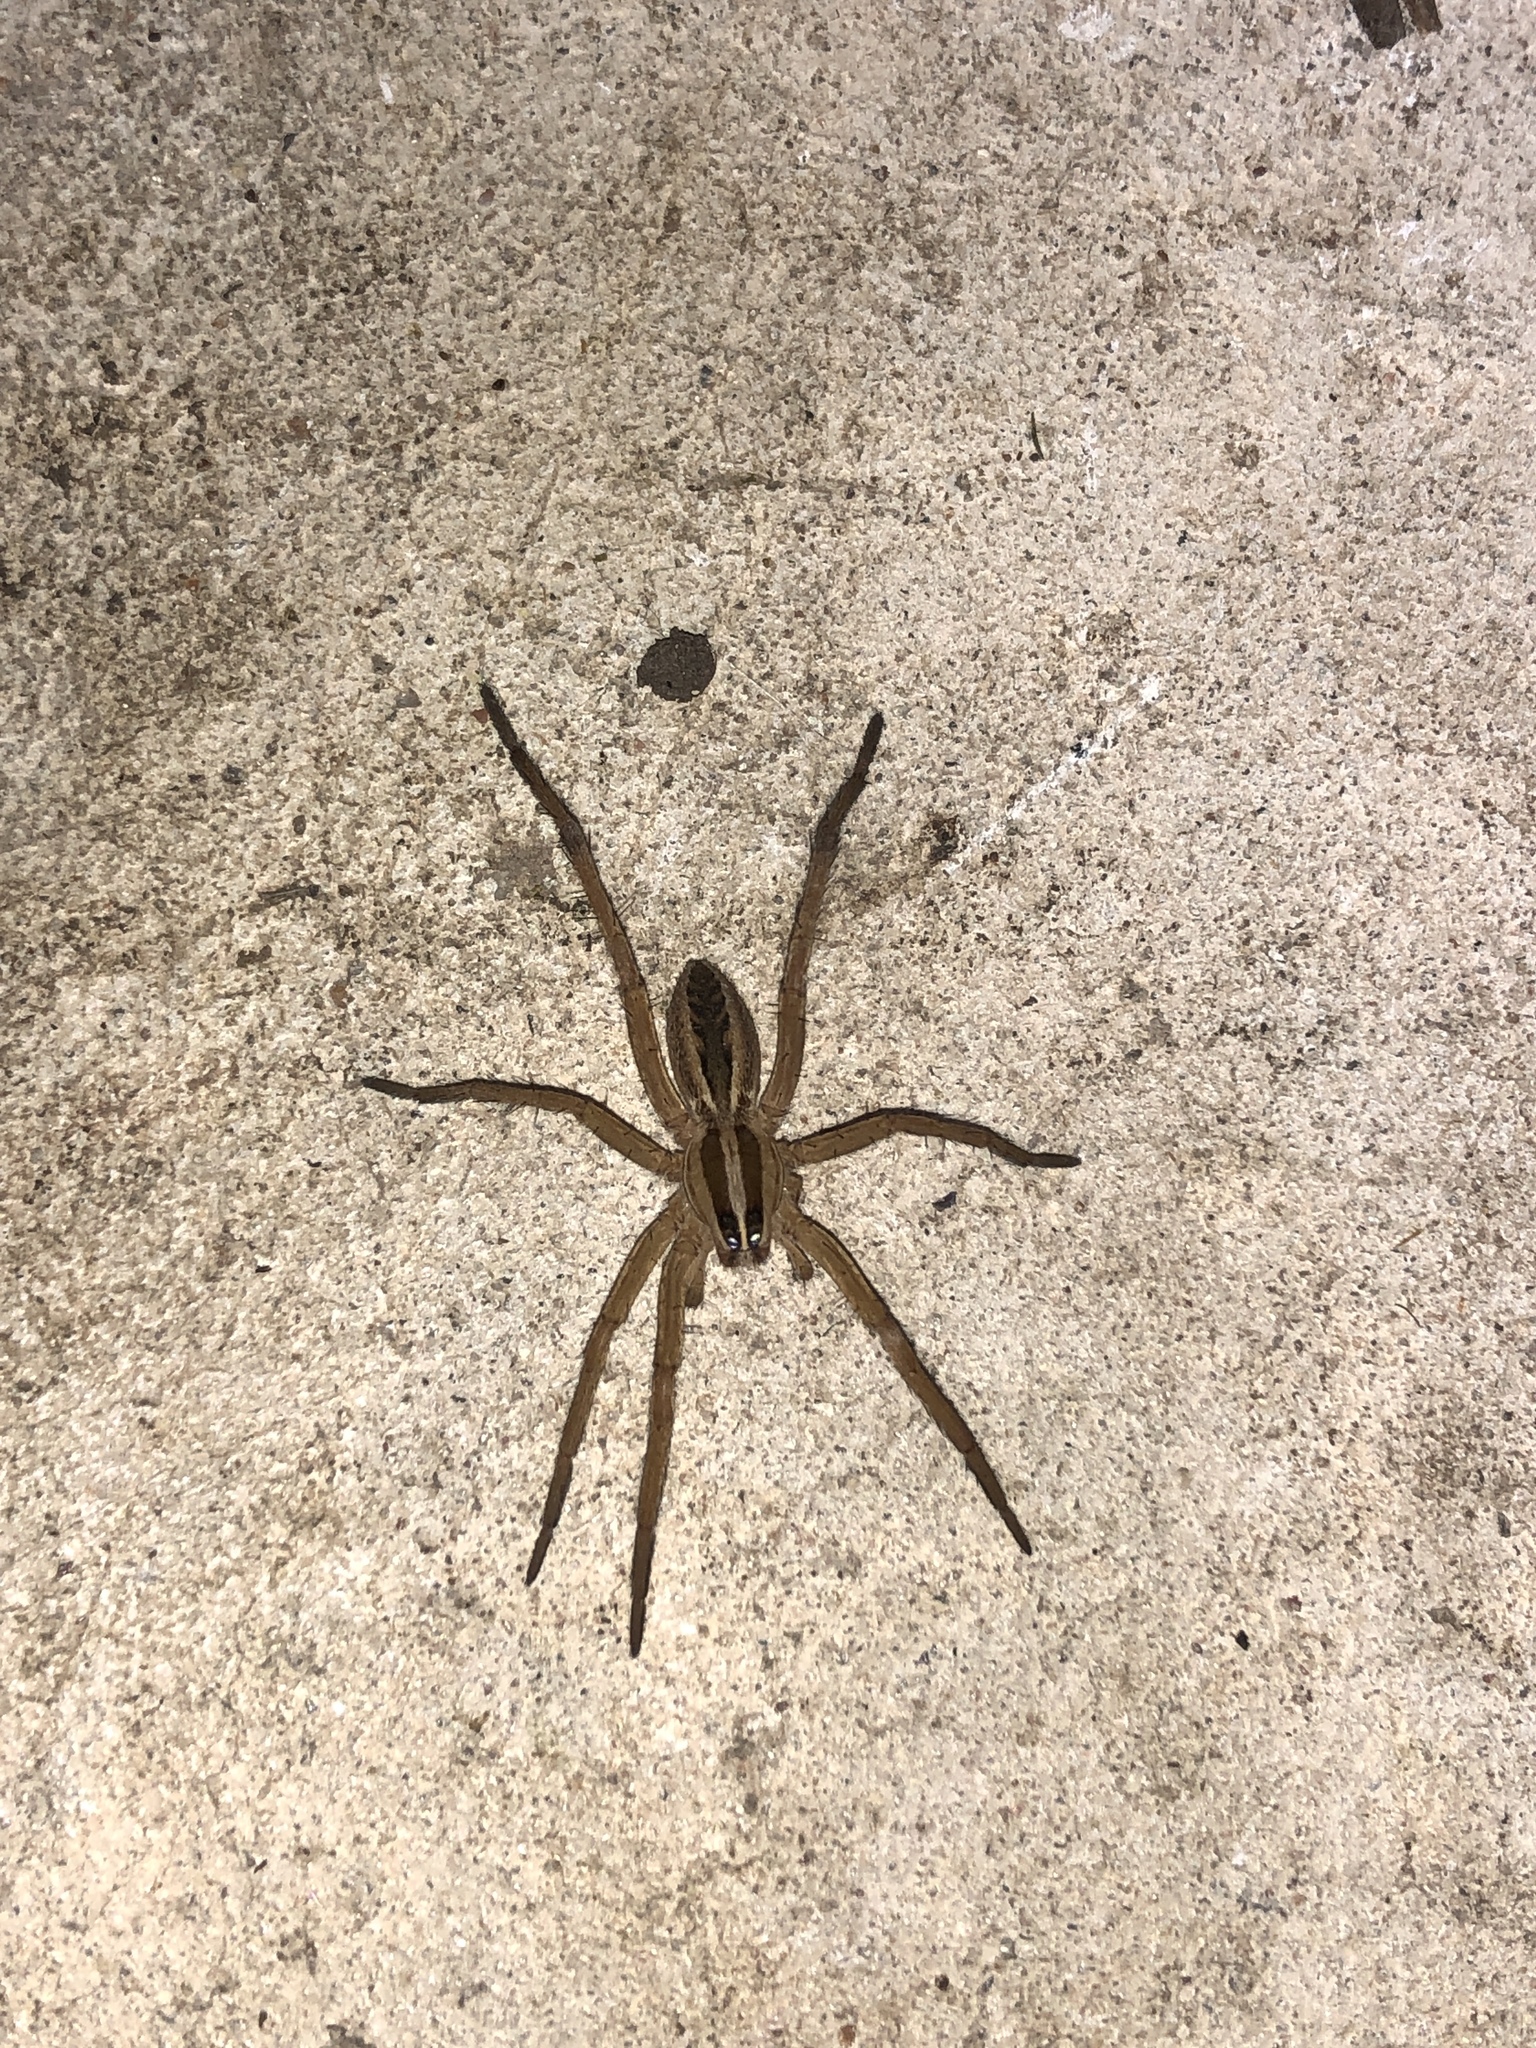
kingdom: Animalia
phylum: Arthropoda
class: Arachnida
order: Araneae
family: Lycosidae
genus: Rabidosa
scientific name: Rabidosa rabida
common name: Rabid wolf spider
